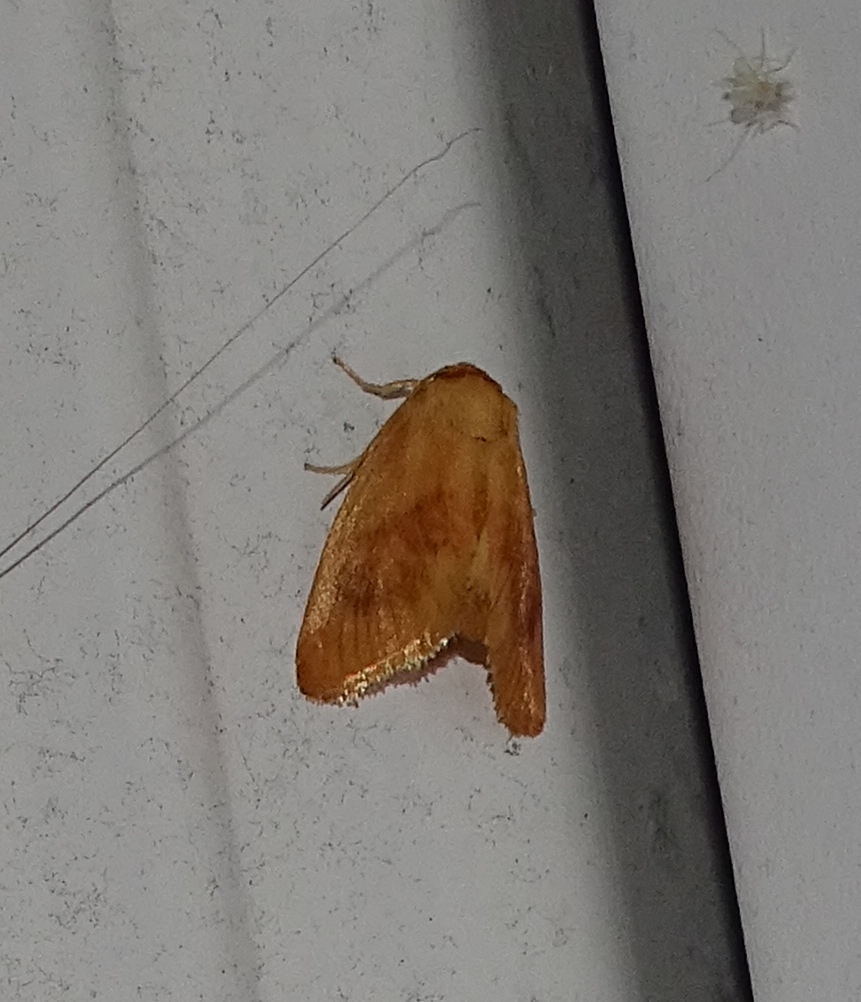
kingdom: Animalia
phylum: Arthropoda
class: Insecta
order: Lepidoptera
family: Limacodidae
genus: Tortricidia
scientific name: Tortricidia flexuosa
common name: Abbreviated button slug moth
